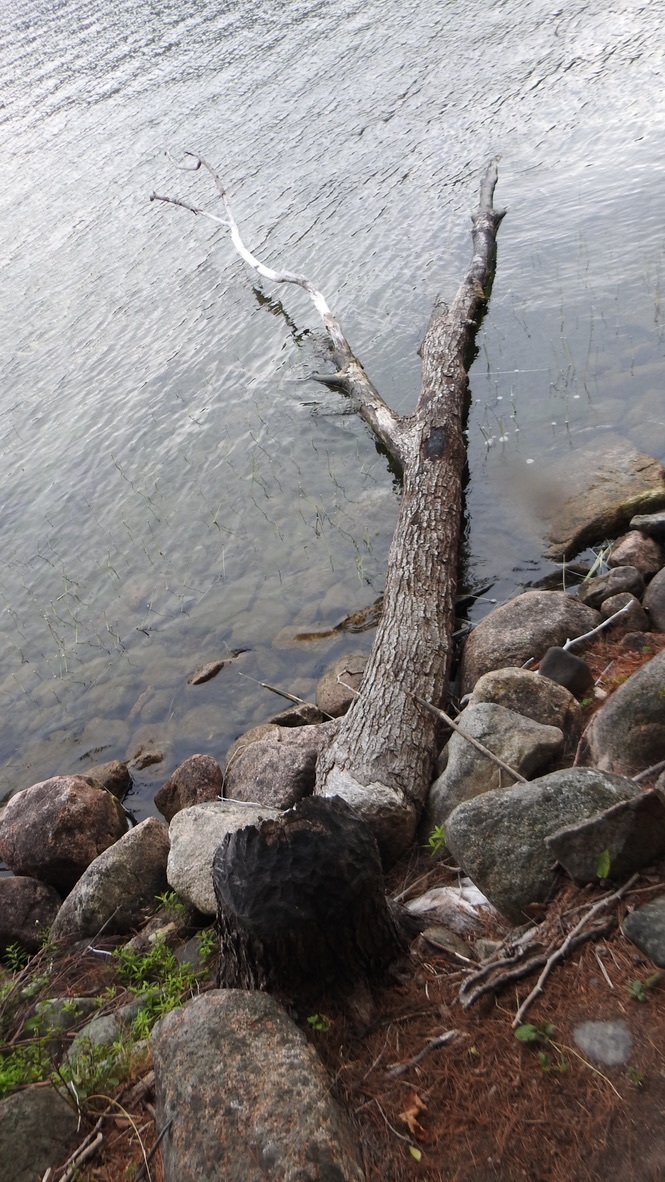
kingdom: Animalia
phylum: Chordata
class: Mammalia
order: Rodentia
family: Castoridae
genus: Castor
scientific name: Castor canadensis
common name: American beaver
